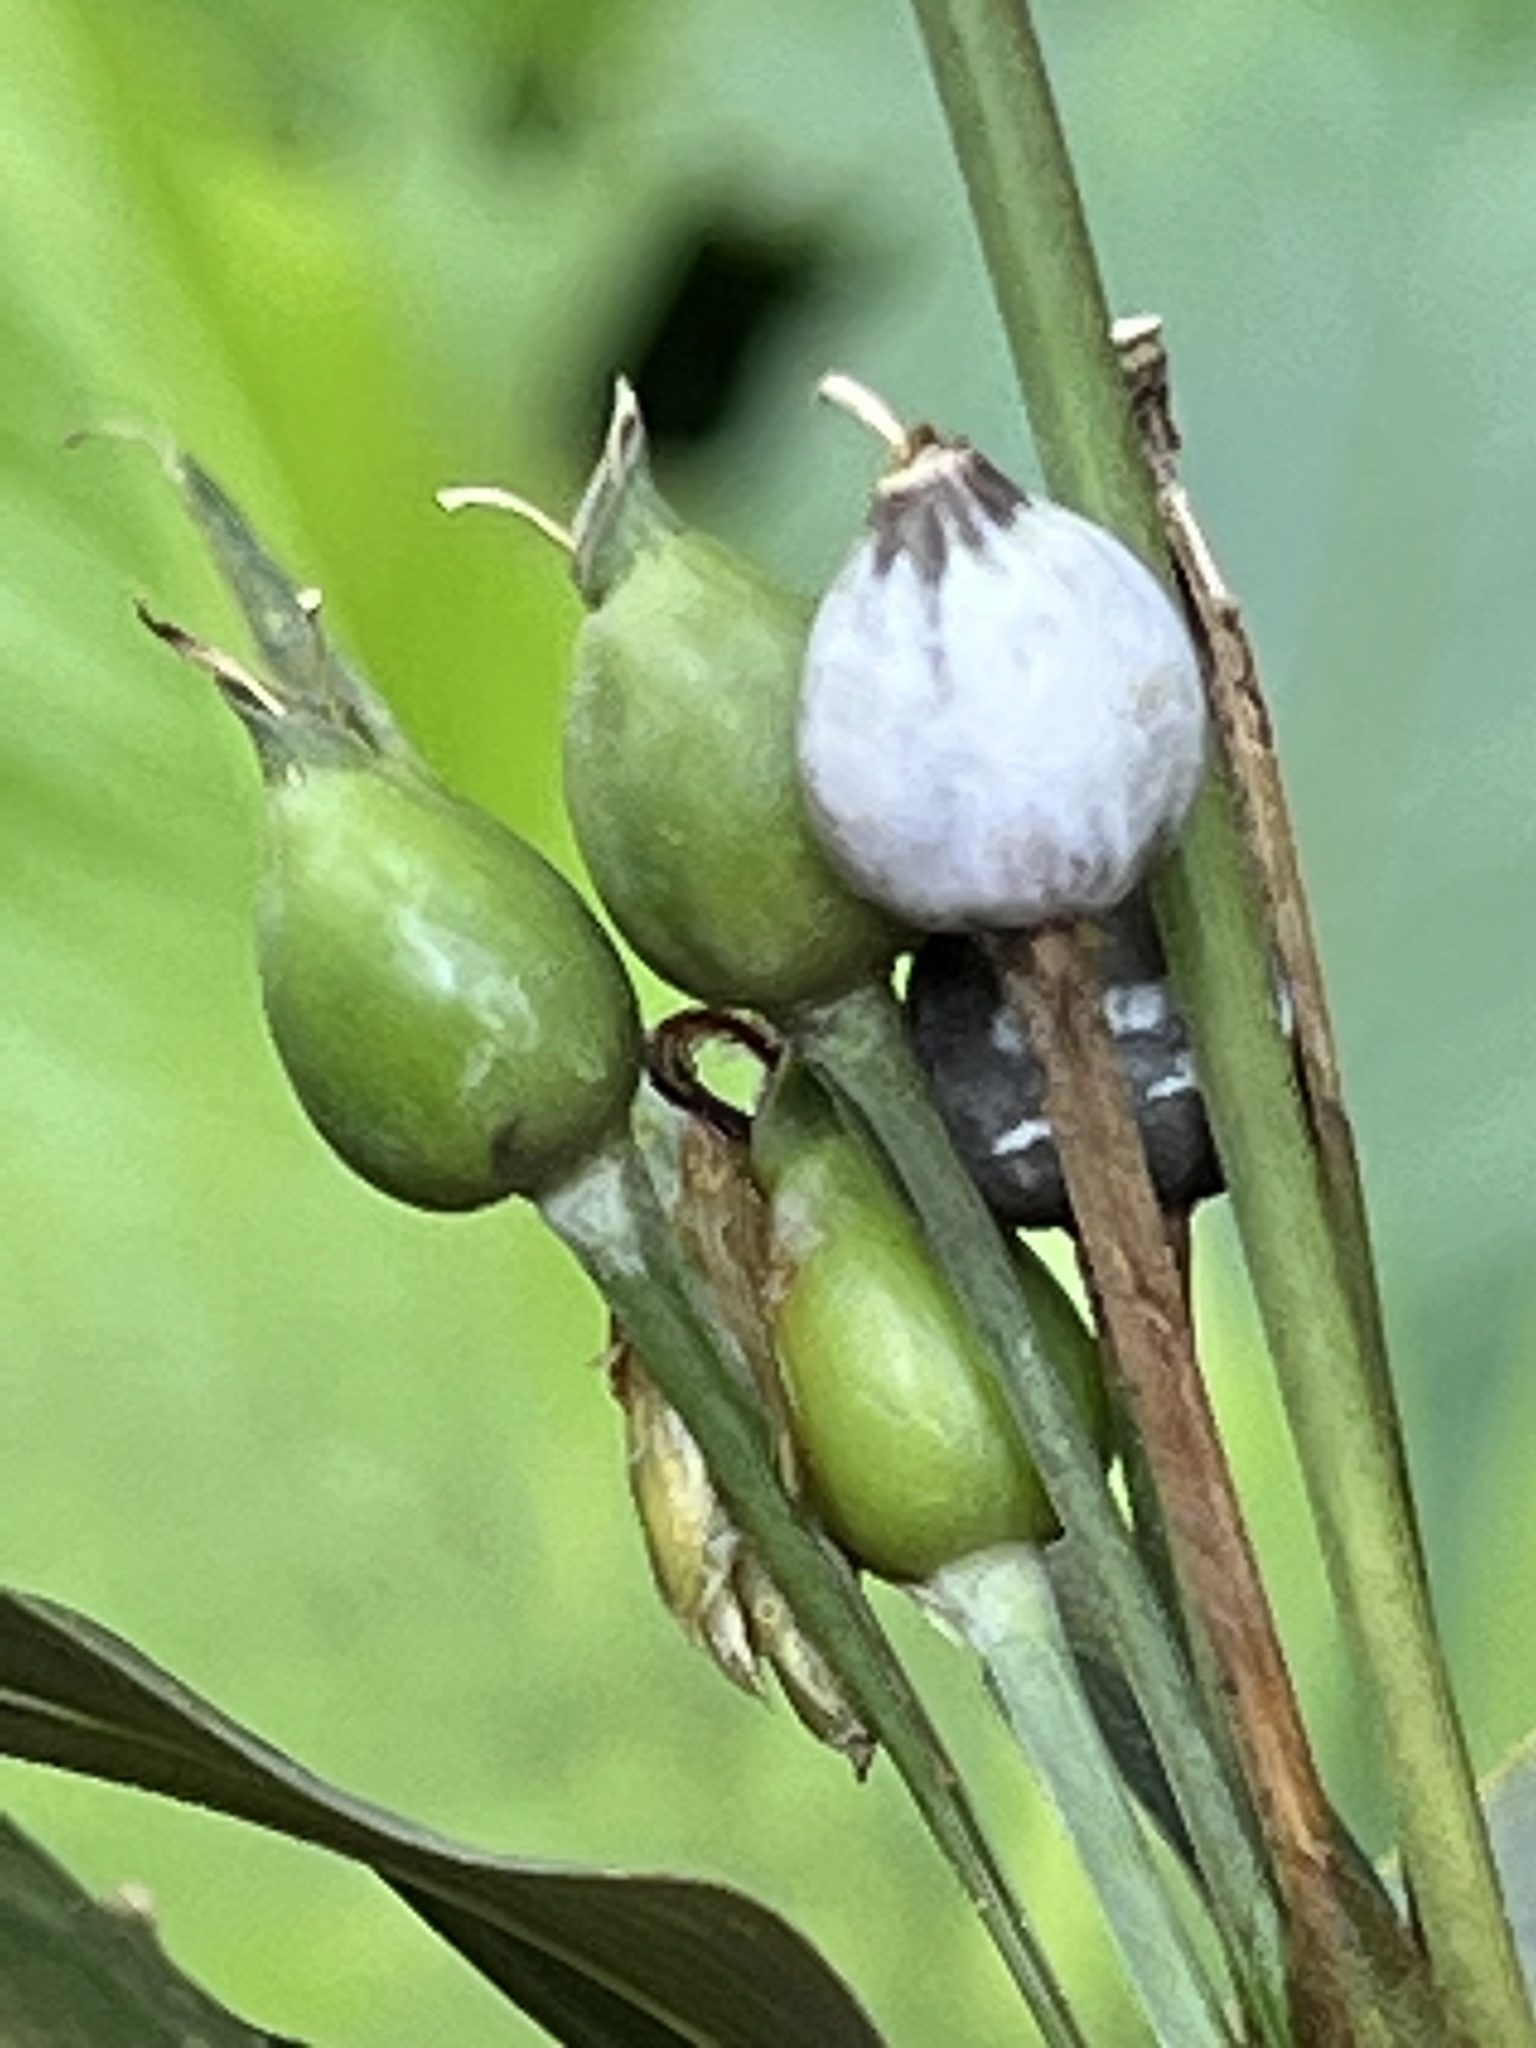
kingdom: Plantae
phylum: Tracheophyta
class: Liliopsida
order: Poales
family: Poaceae
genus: Coix
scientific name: Coix lacryma-jobi
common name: Job's tears
